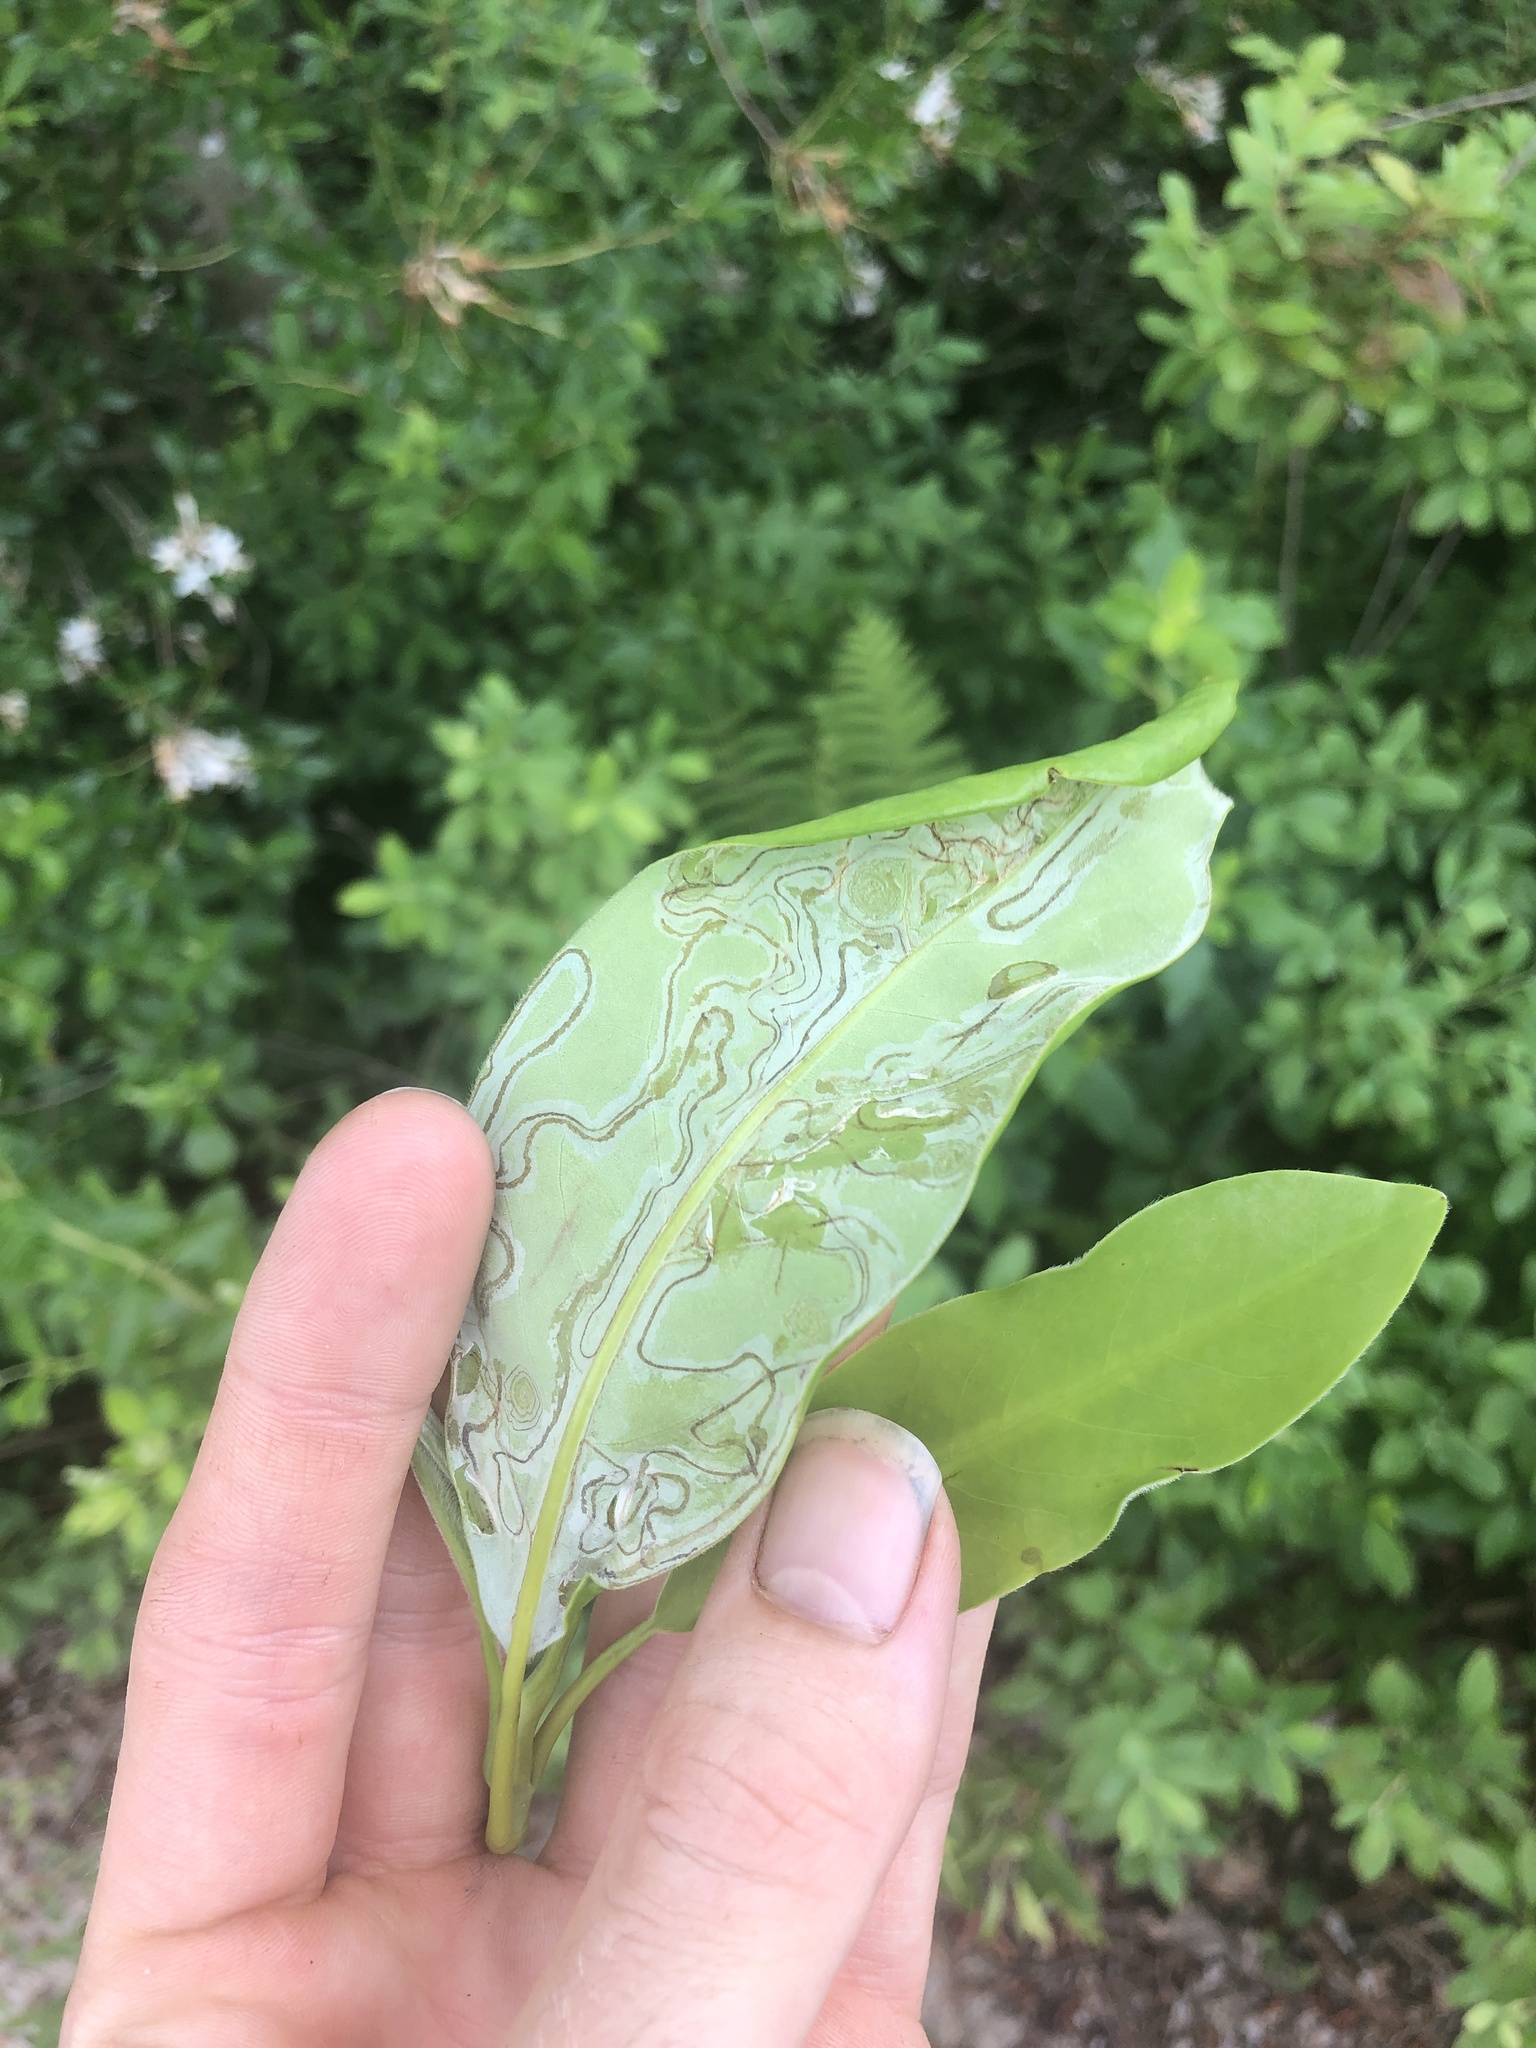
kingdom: Plantae
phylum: Tracheophyta
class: Magnoliopsida
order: Magnoliales
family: Magnoliaceae
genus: Magnolia
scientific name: Magnolia virginiana
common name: Swamp bay
